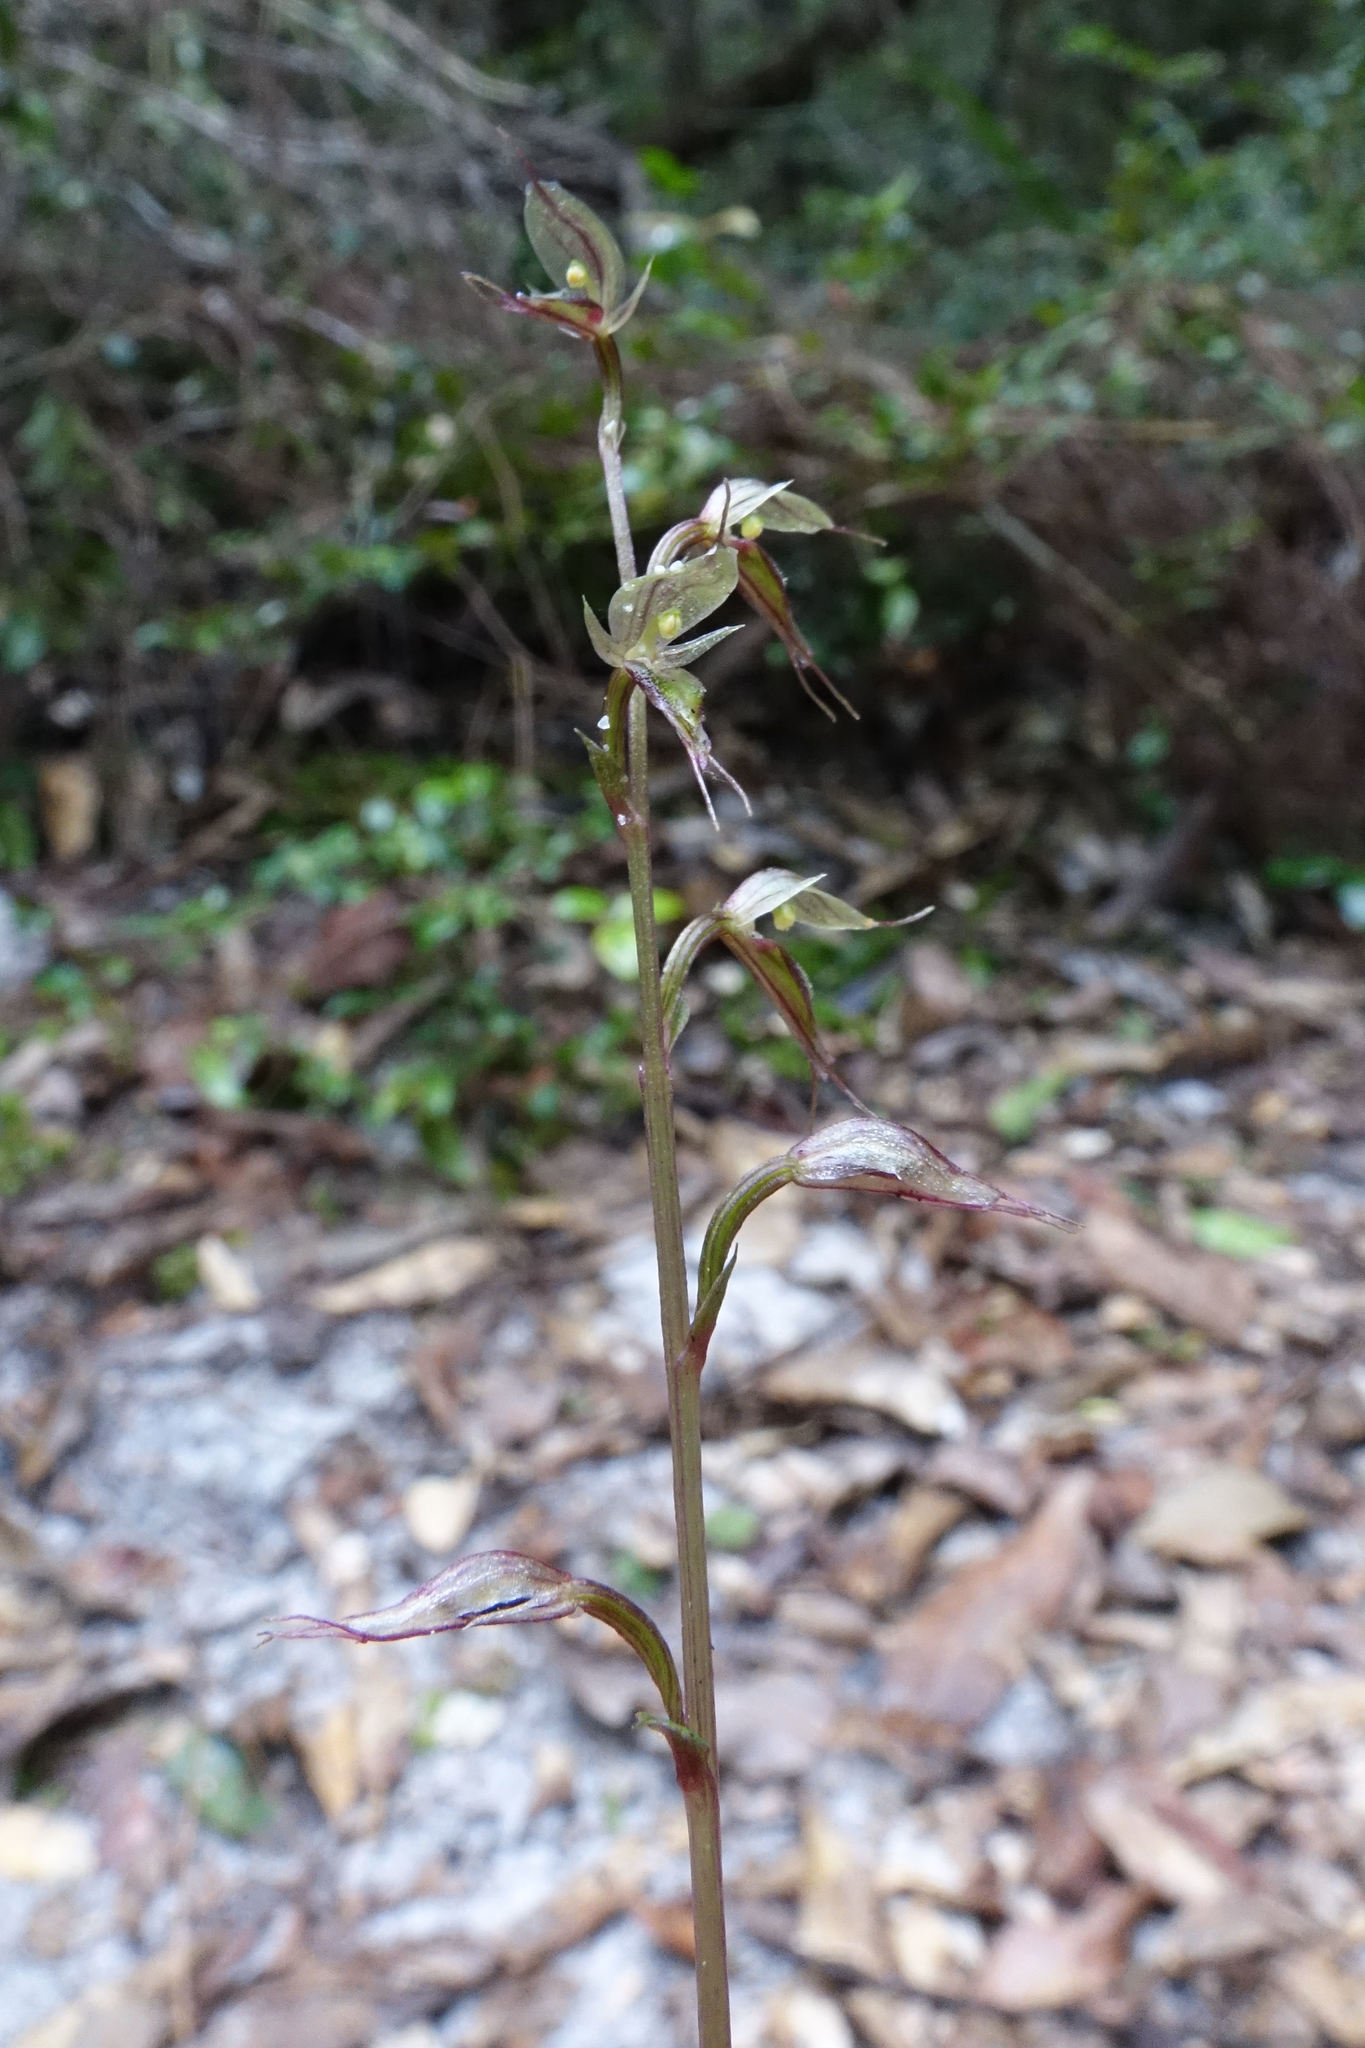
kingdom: Plantae
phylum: Tracheophyta
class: Liliopsida
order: Asparagales
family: Orchidaceae
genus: Acianthus
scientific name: Acianthus fornicatus
